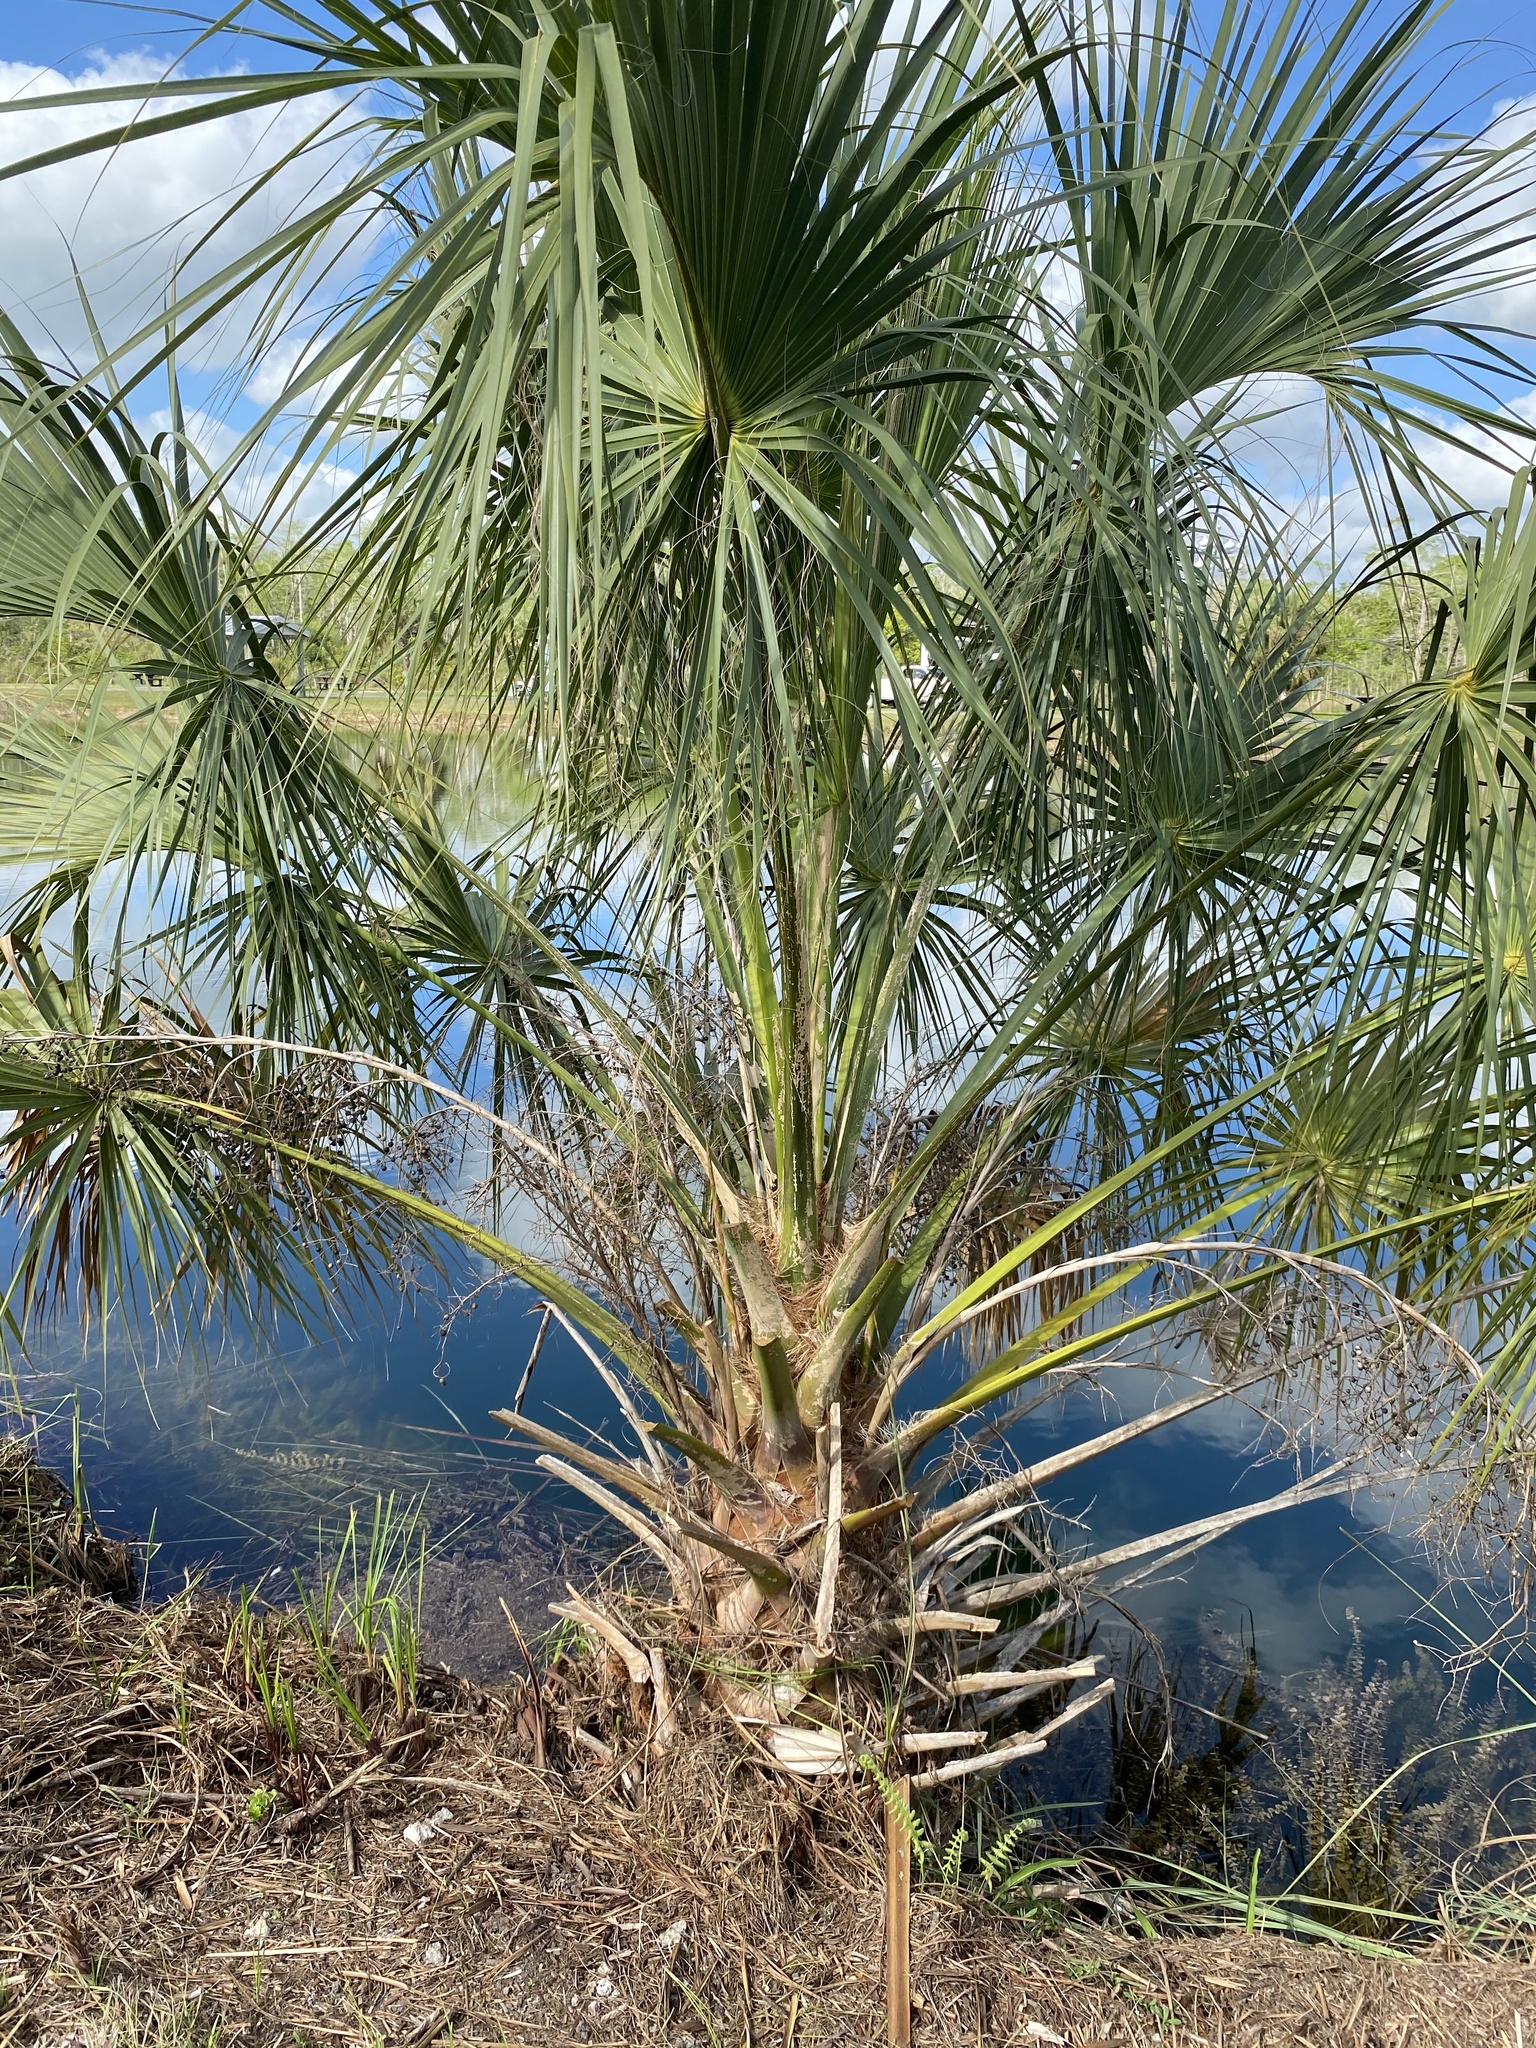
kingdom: Plantae
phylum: Tracheophyta
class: Liliopsida
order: Arecales
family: Arecaceae
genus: Sabal
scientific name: Sabal palmetto
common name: Blue palmetto
